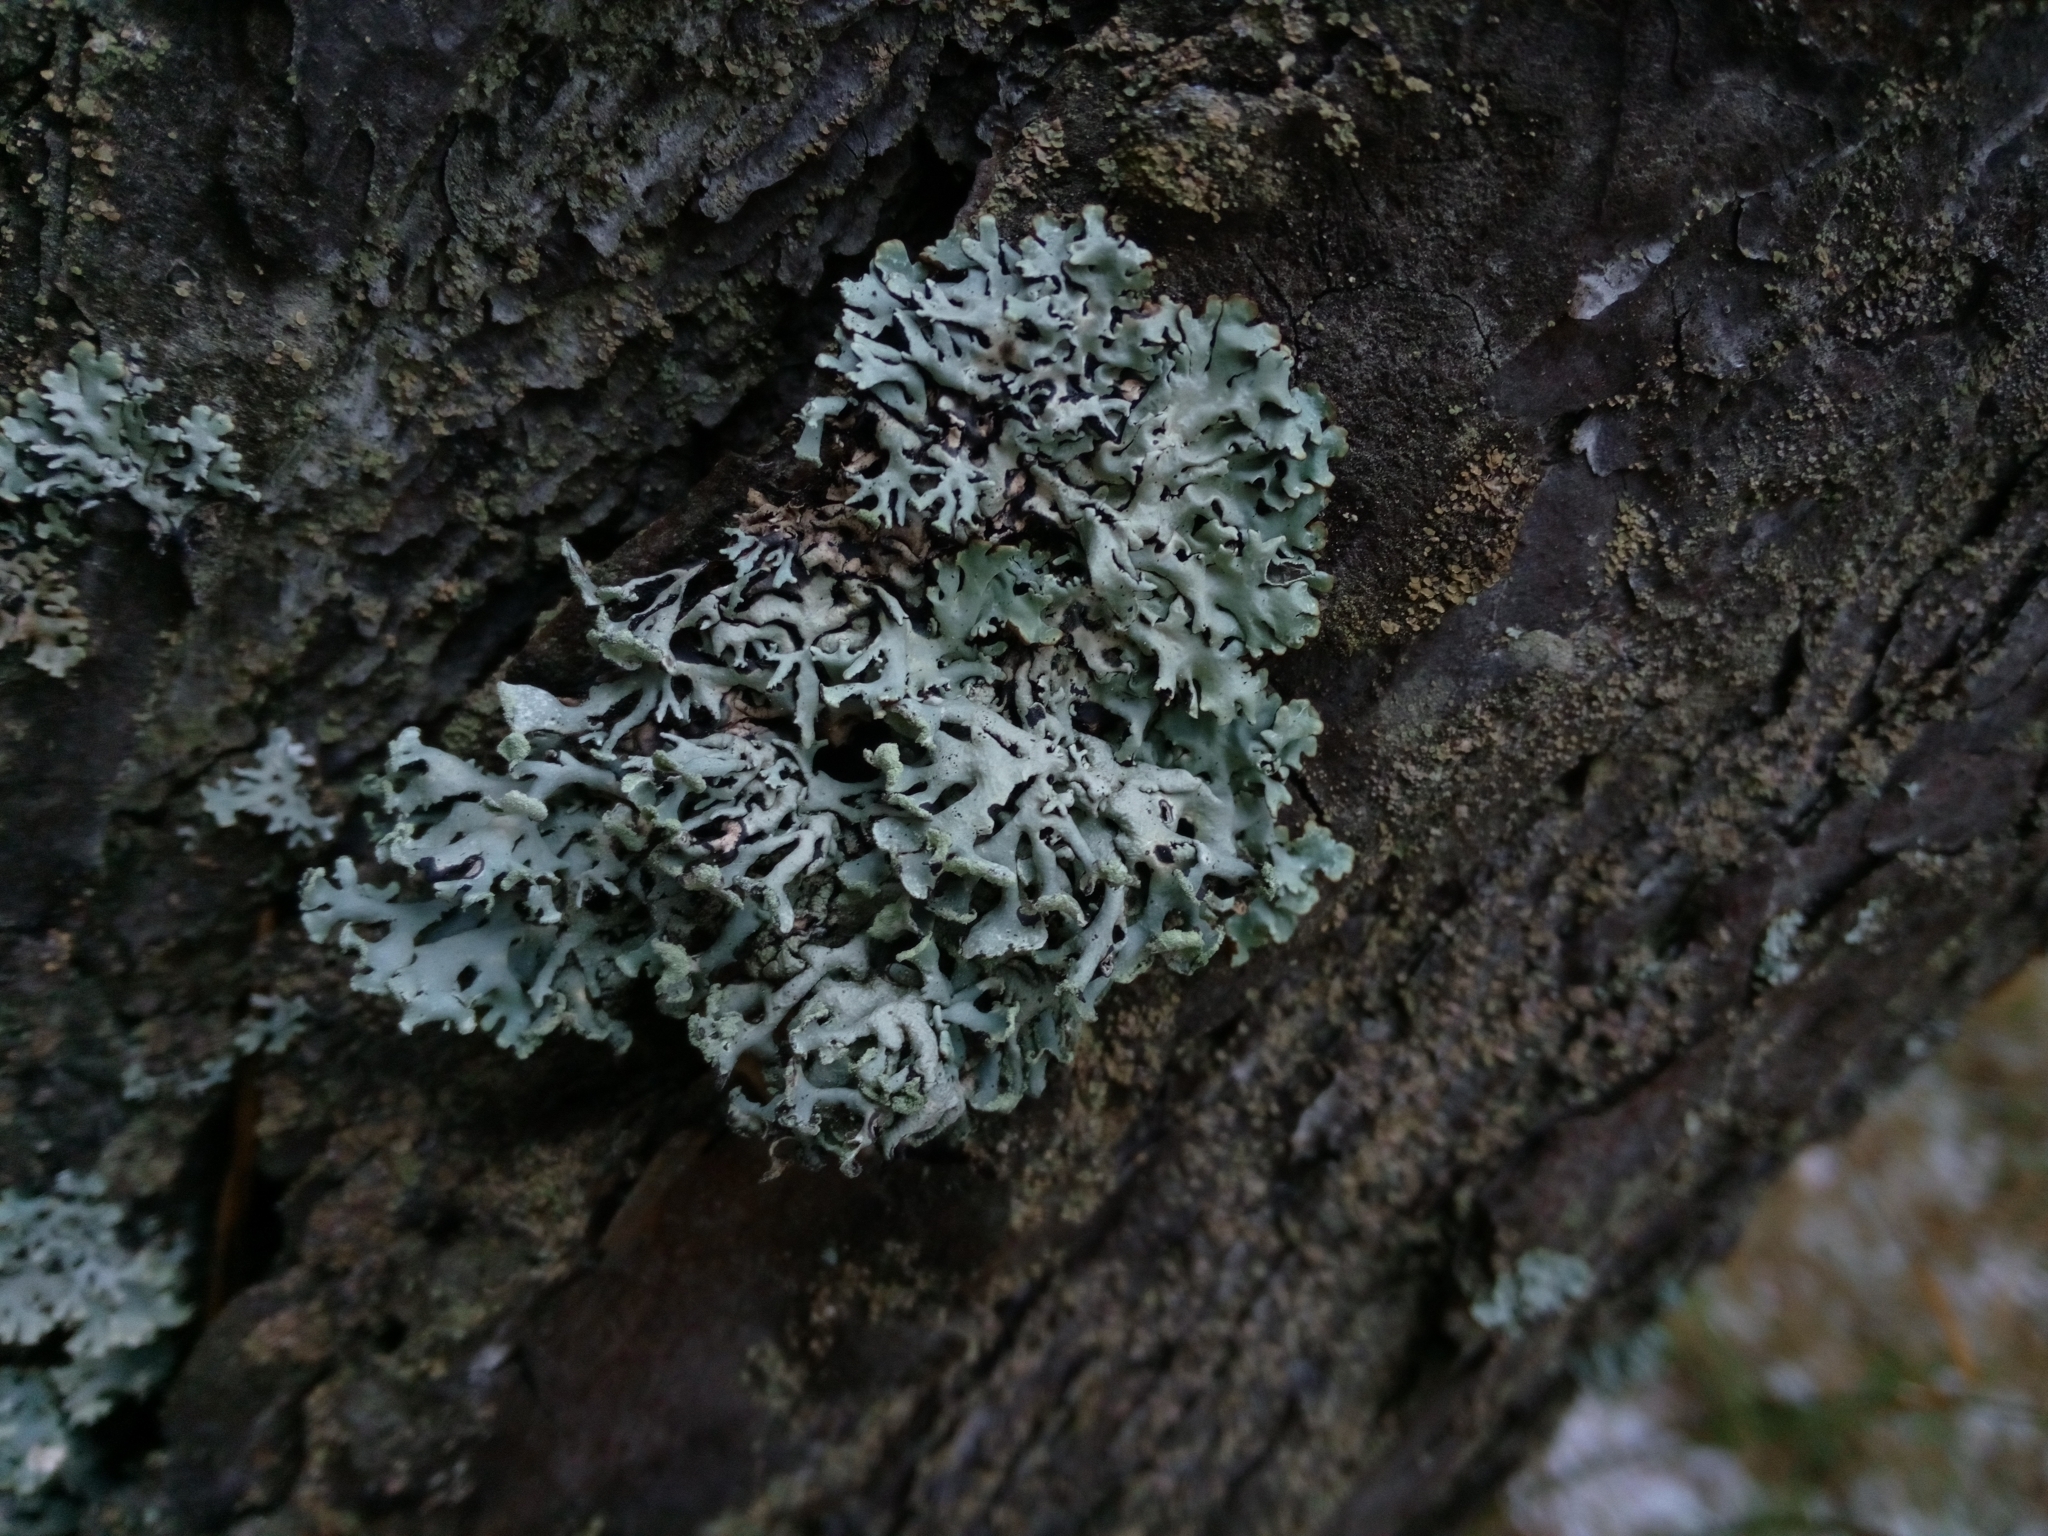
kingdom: Fungi
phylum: Ascomycota
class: Lecanoromycetes
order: Lecanorales
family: Parmeliaceae
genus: Hypogymnia
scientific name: Hypogymnia physodes
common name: Dark crottle
